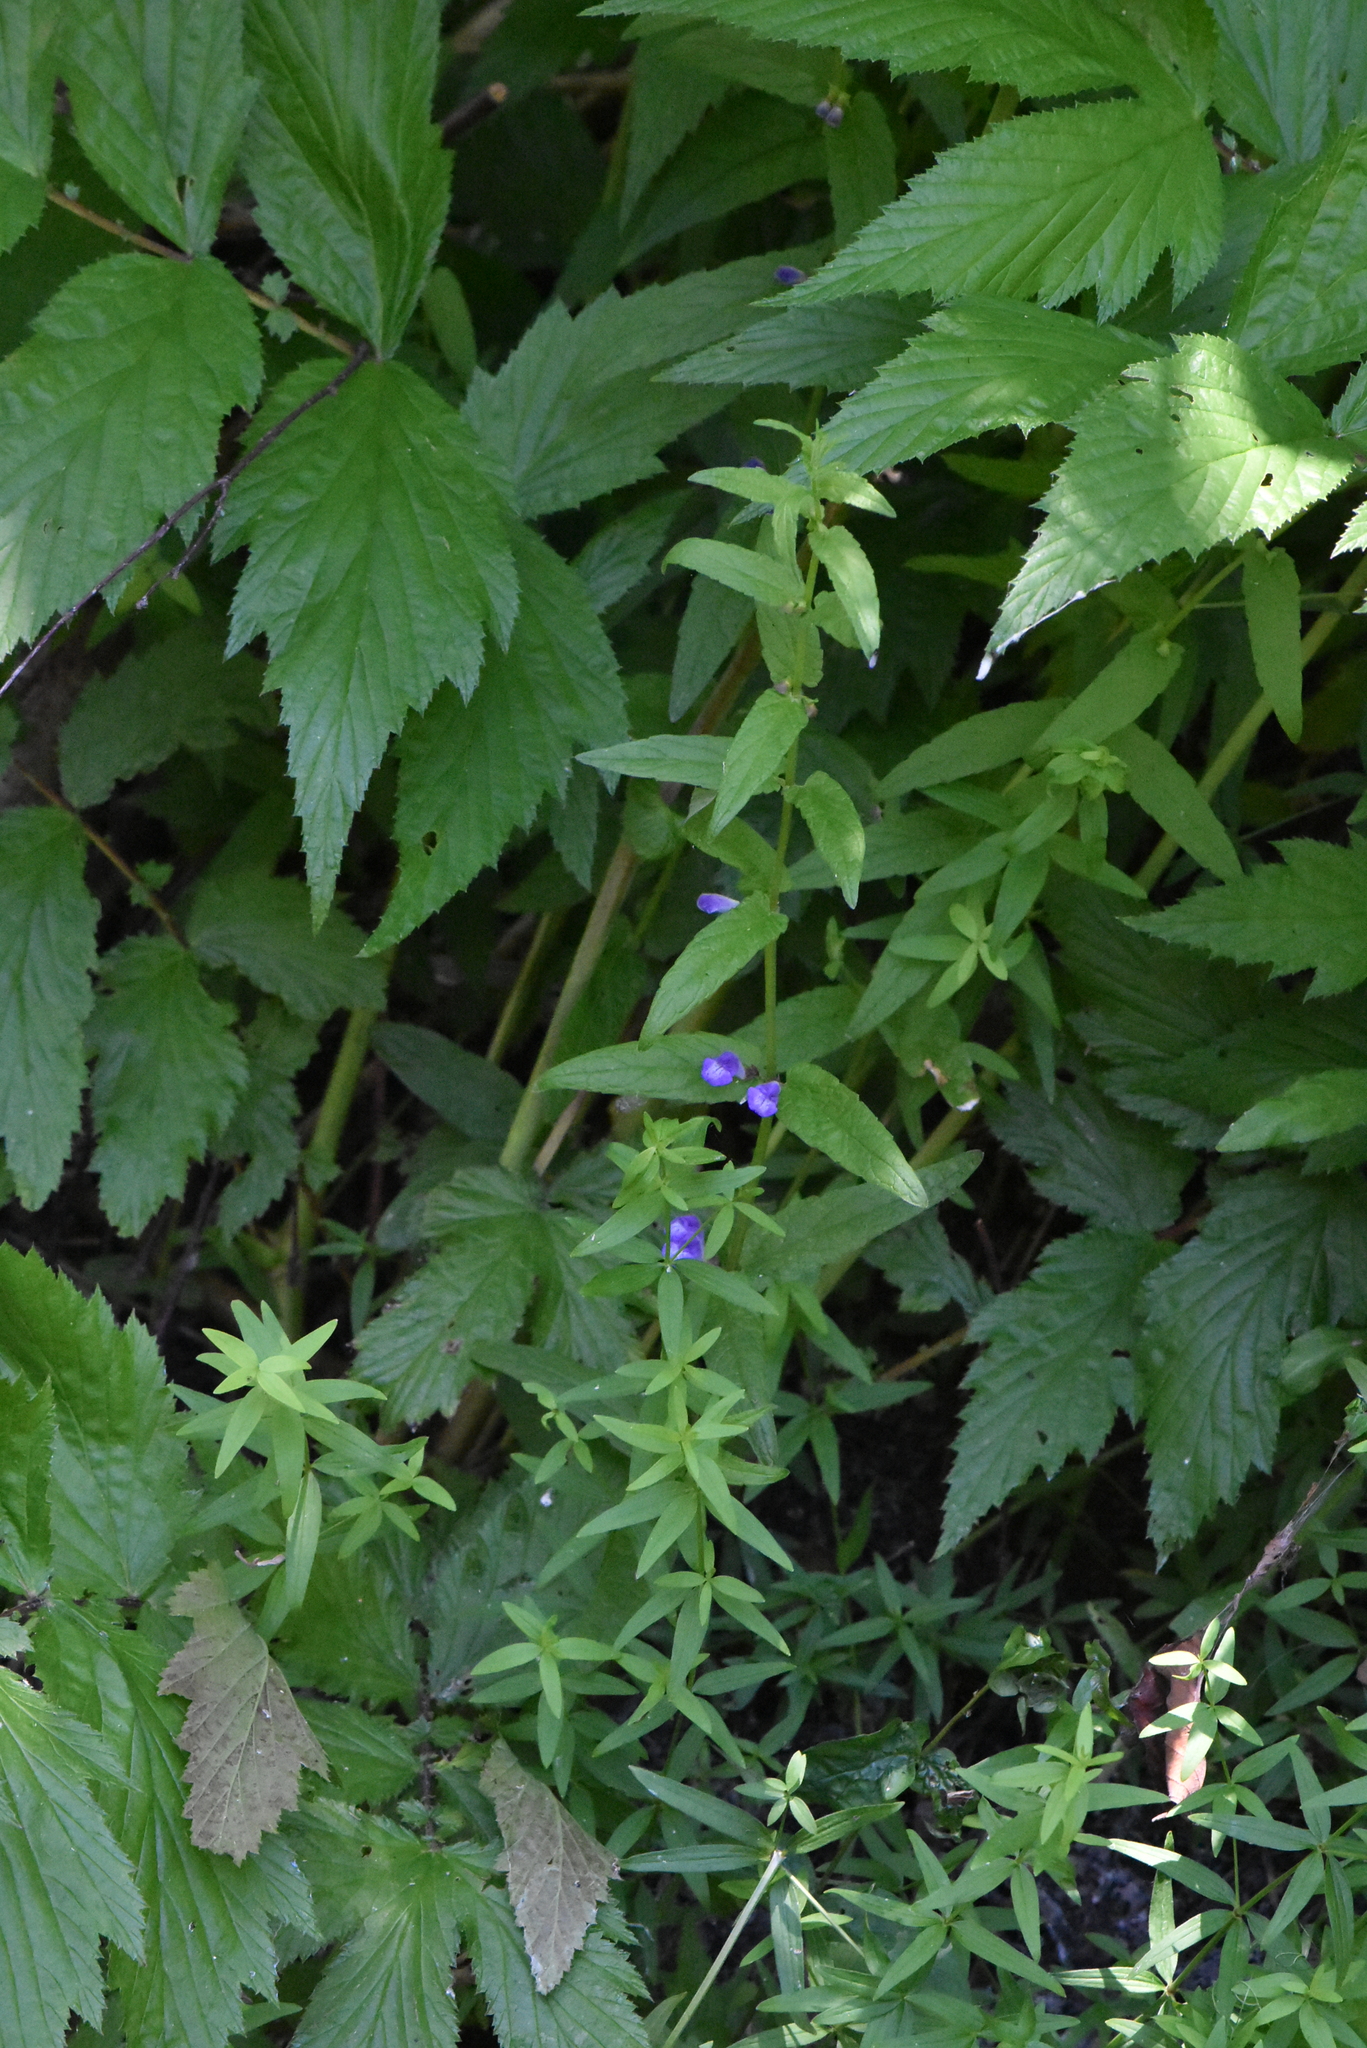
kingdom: Plantae
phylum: Tracheophyta
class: Magnoliopsida
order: Lamiales
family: Lamiaceae
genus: Scutellaria
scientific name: Scutellaria galericulata
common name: Skullcap
